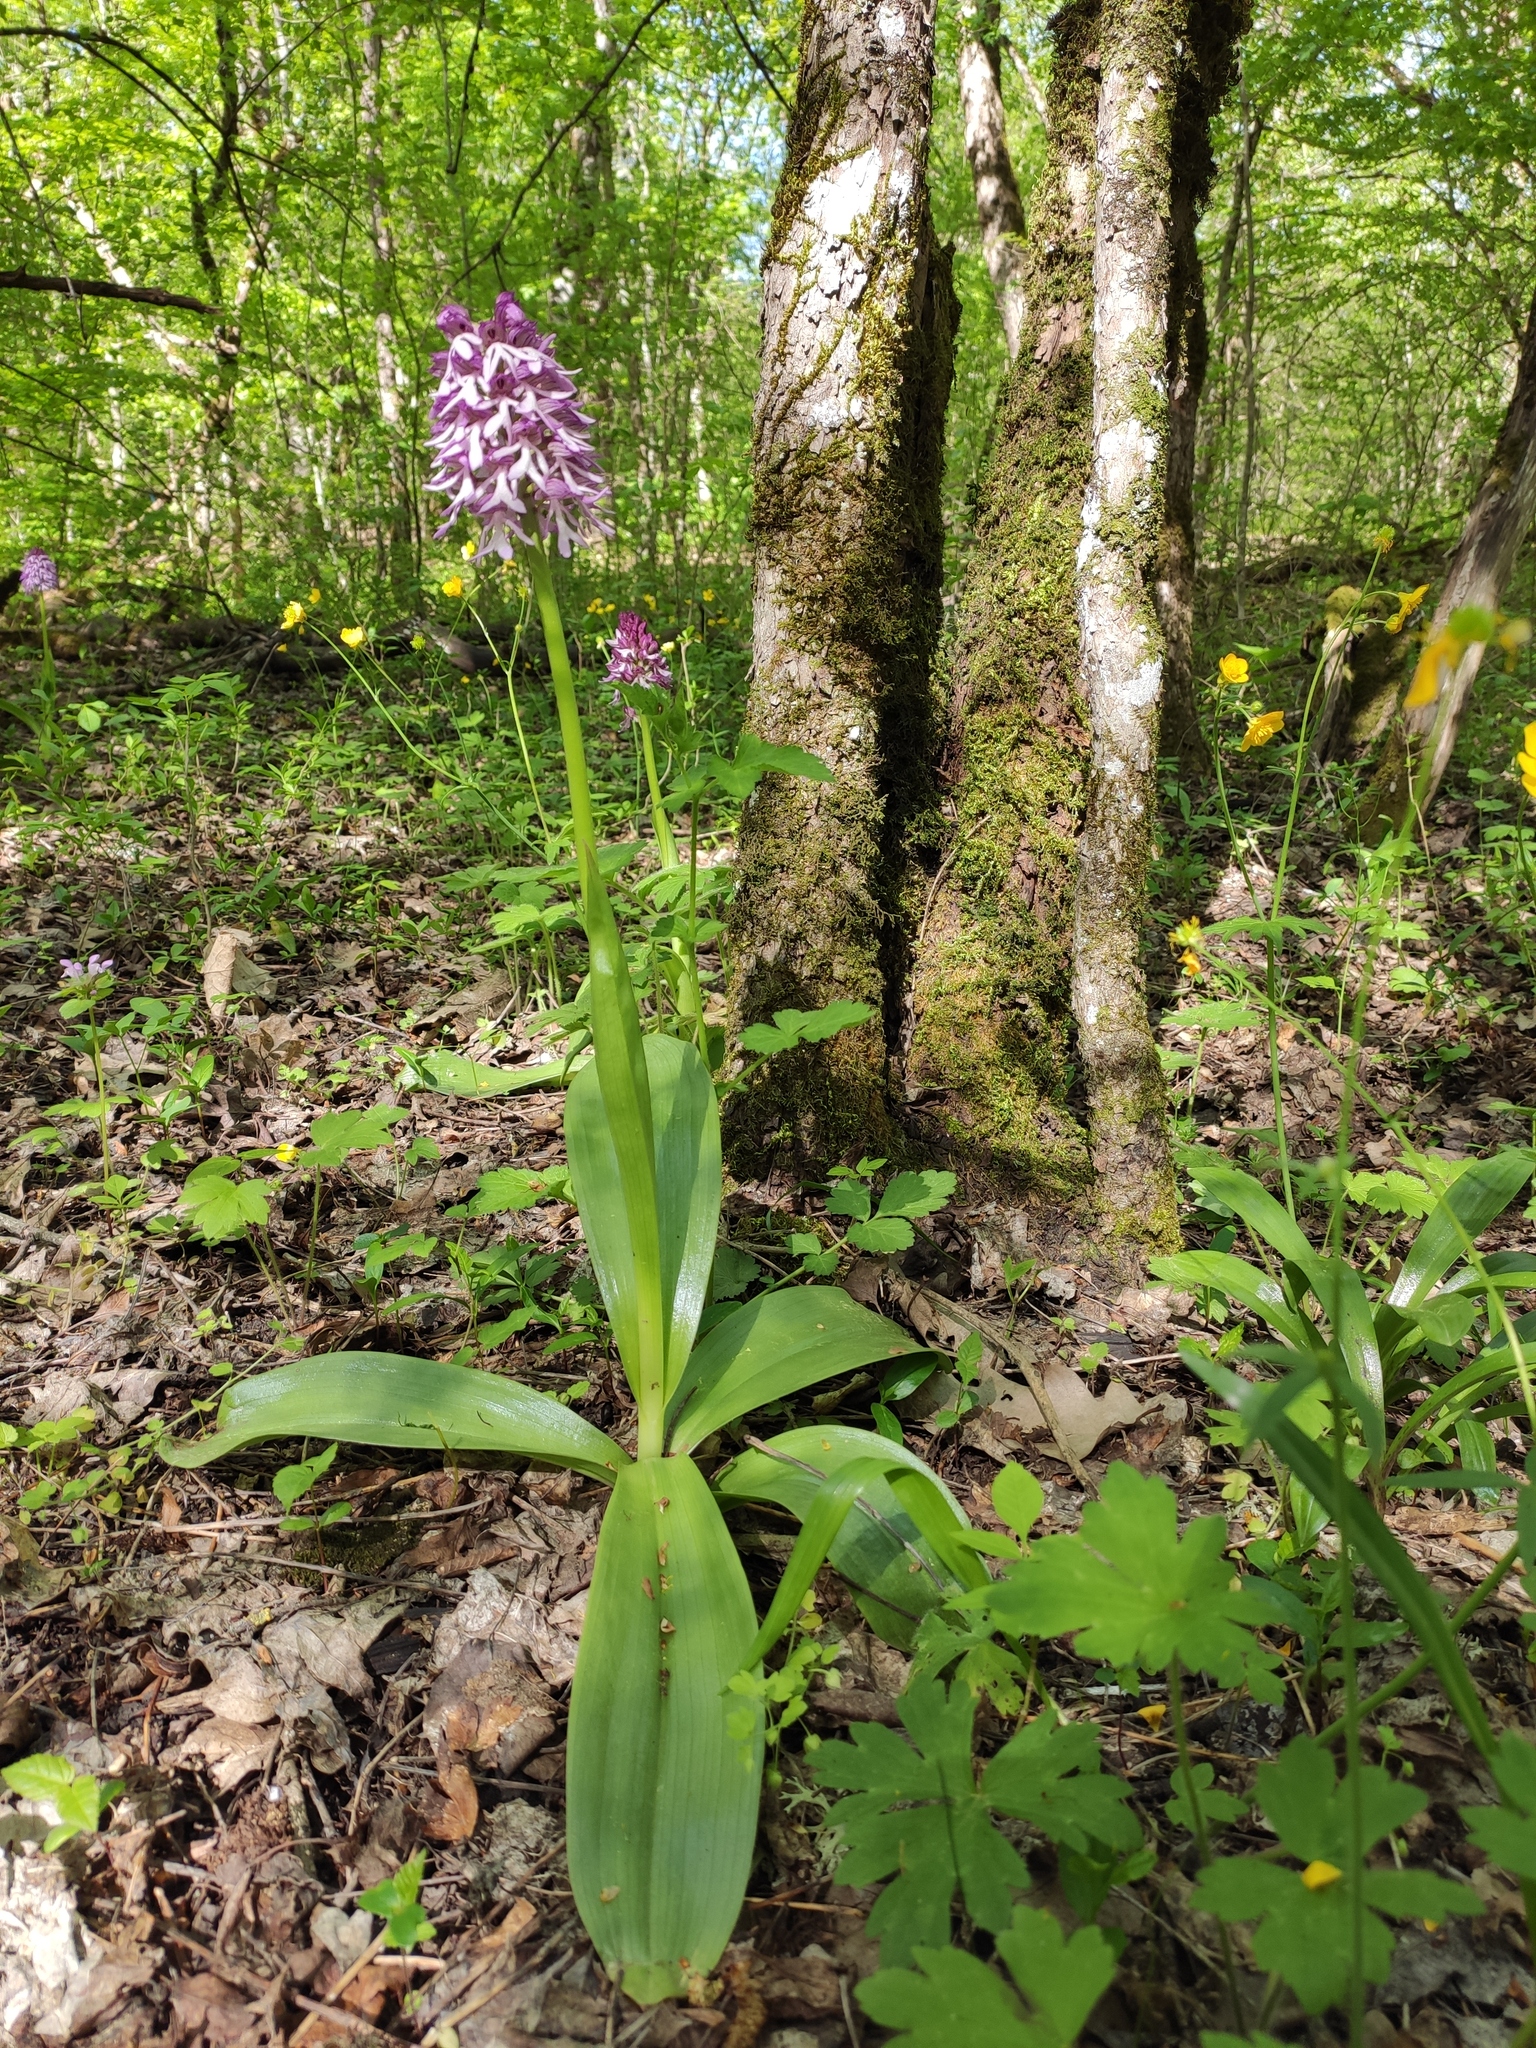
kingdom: Plantae
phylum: Tracheophyta
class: Liliopsida
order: Asparagales
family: Orchidaceae
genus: Orchis
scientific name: Orchis purpurea
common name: Lady orchid
